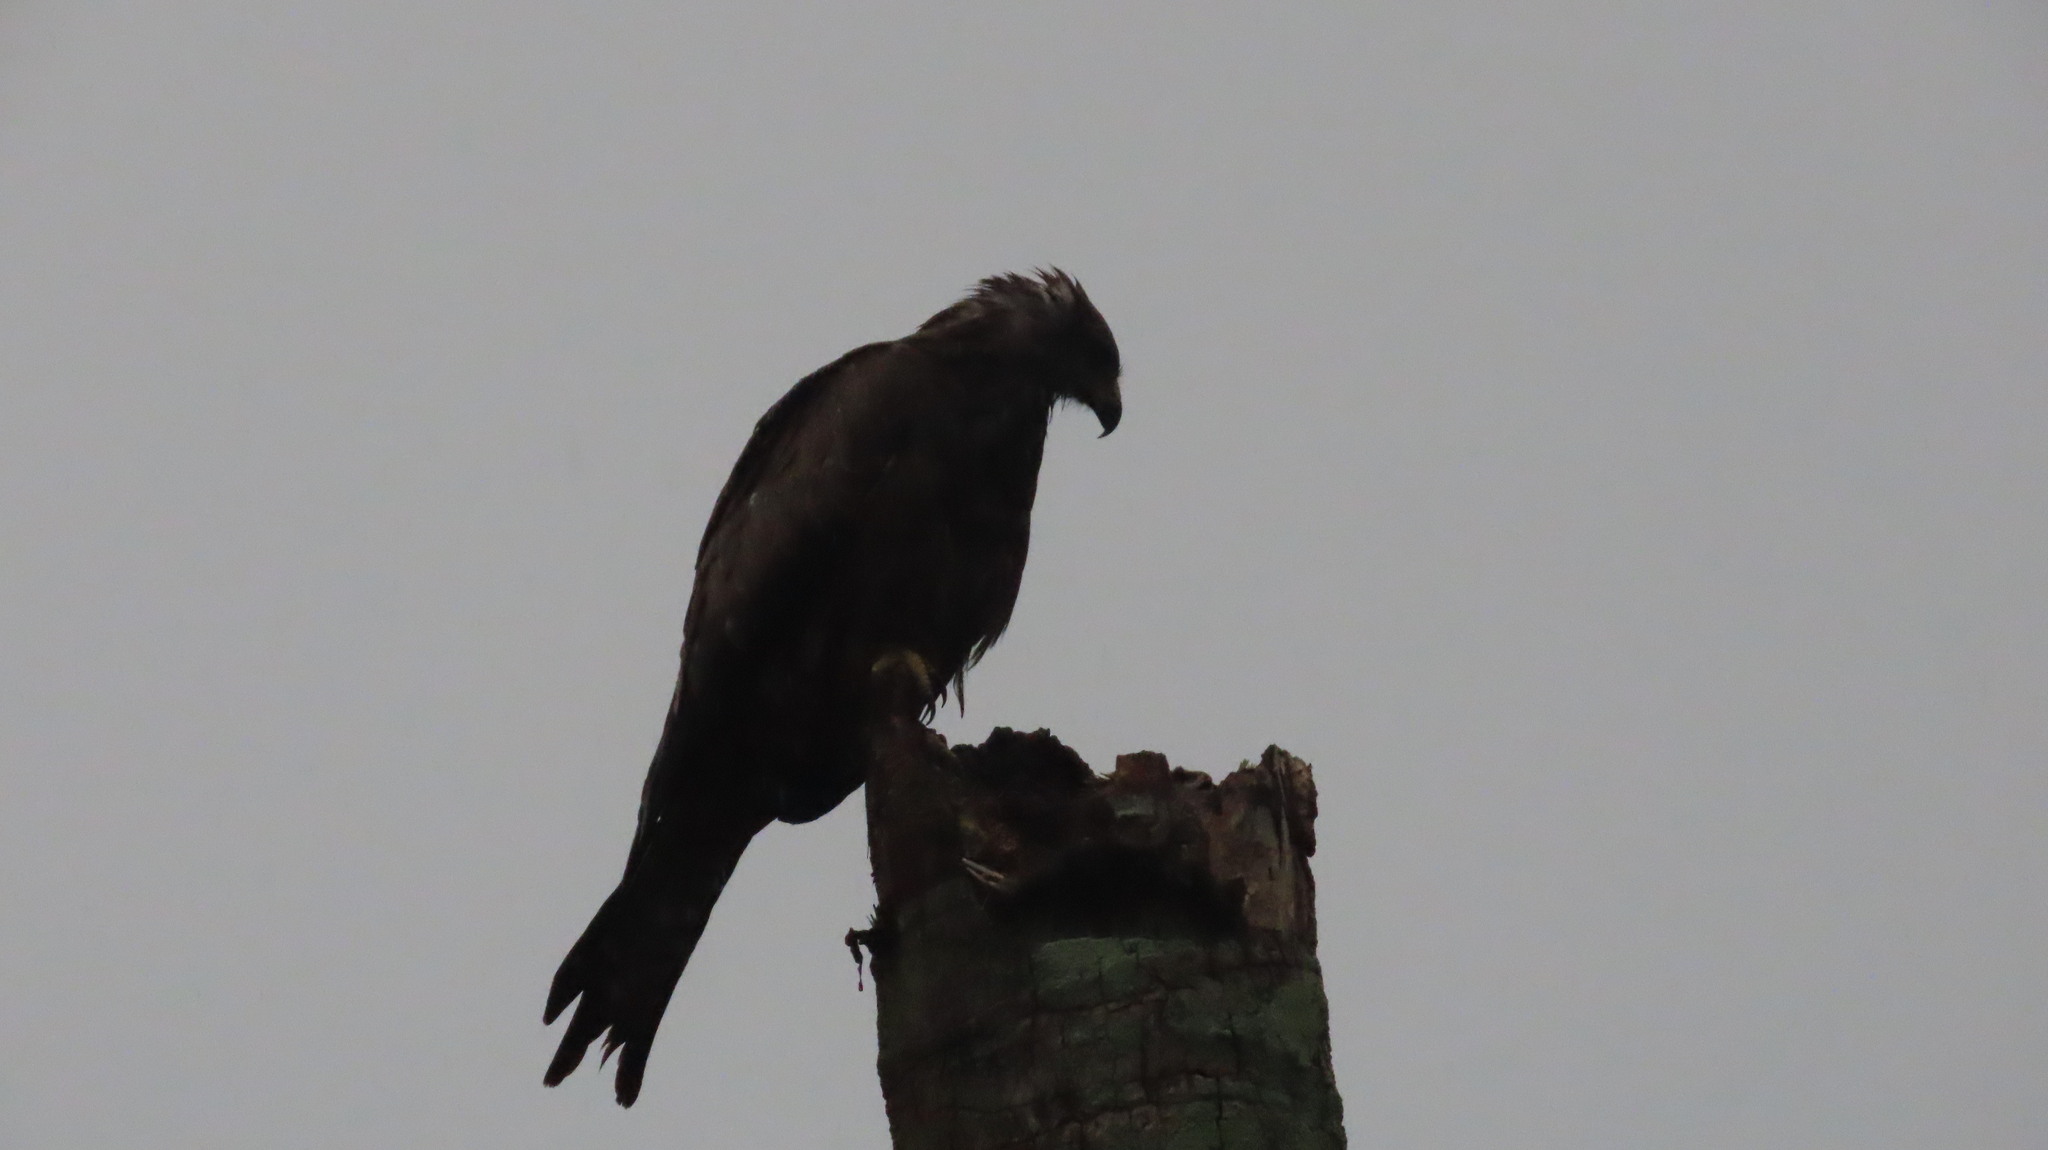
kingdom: Animalia
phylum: Chordata
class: Aves
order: Accipitriformes
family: Accipitridae
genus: Milvus
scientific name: Milvus migrans
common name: Black kite
